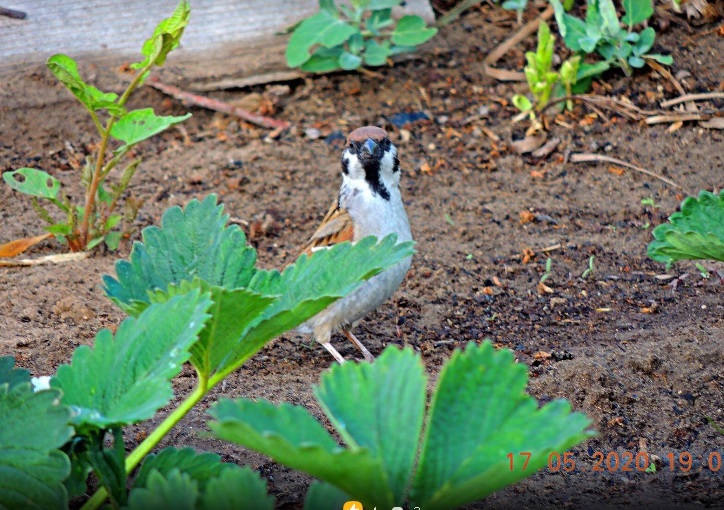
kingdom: Animalia
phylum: Chordata
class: Aves
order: Passeriformes
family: Passeridae
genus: Passer
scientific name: Passer montanus
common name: Eurasian tree sparrow
